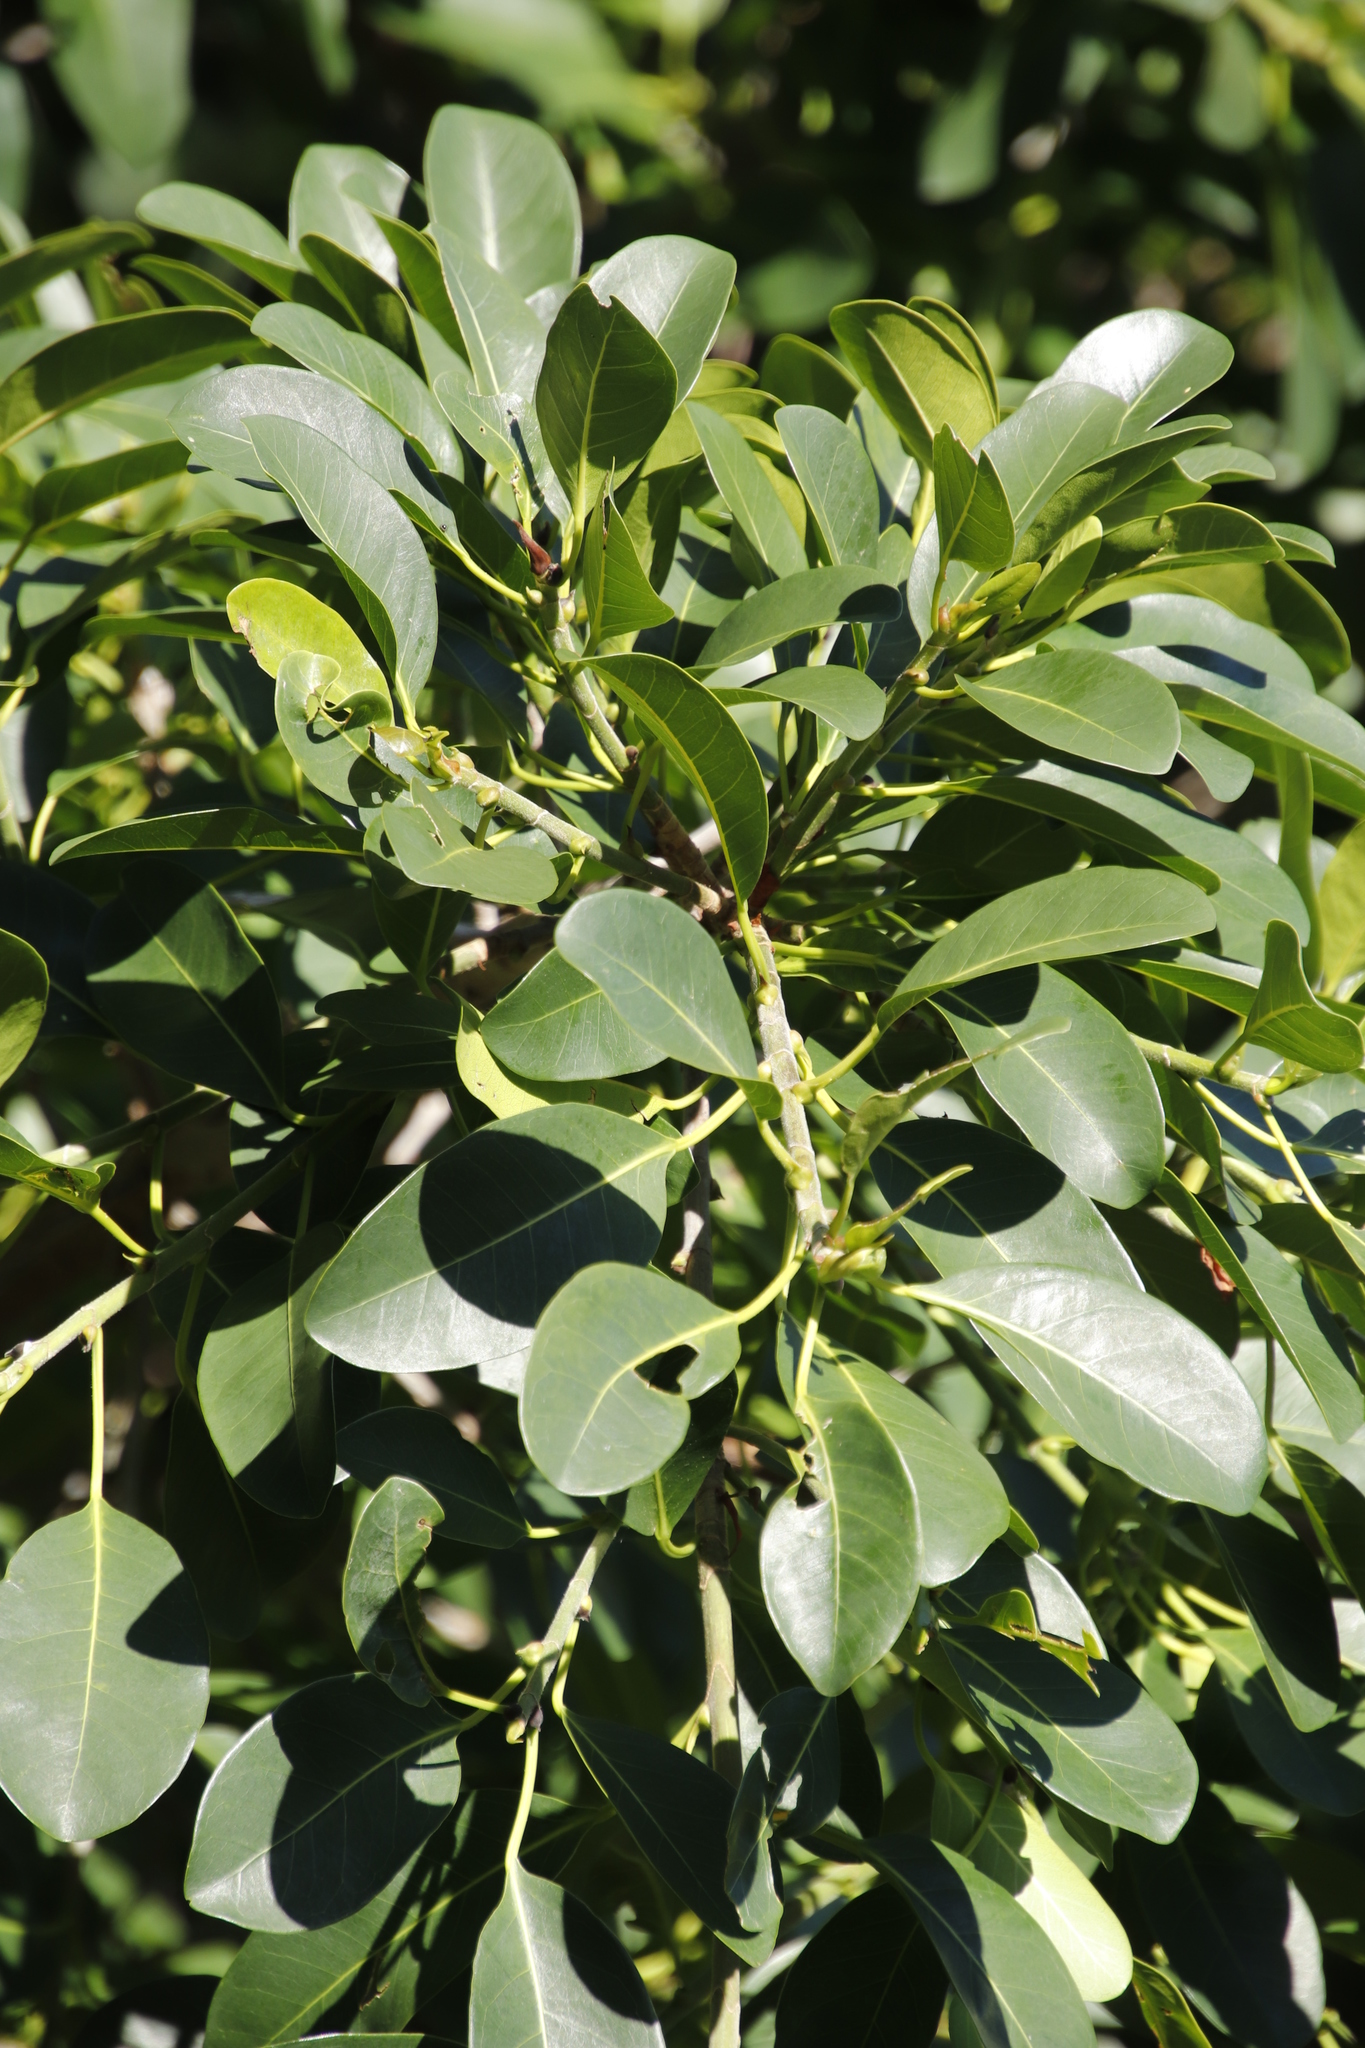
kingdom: Plantae
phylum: Tracheophyta
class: Magnoliopsida
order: Rosales
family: Moraceae
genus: Ficus
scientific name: Ficus thonningii
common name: Fig
